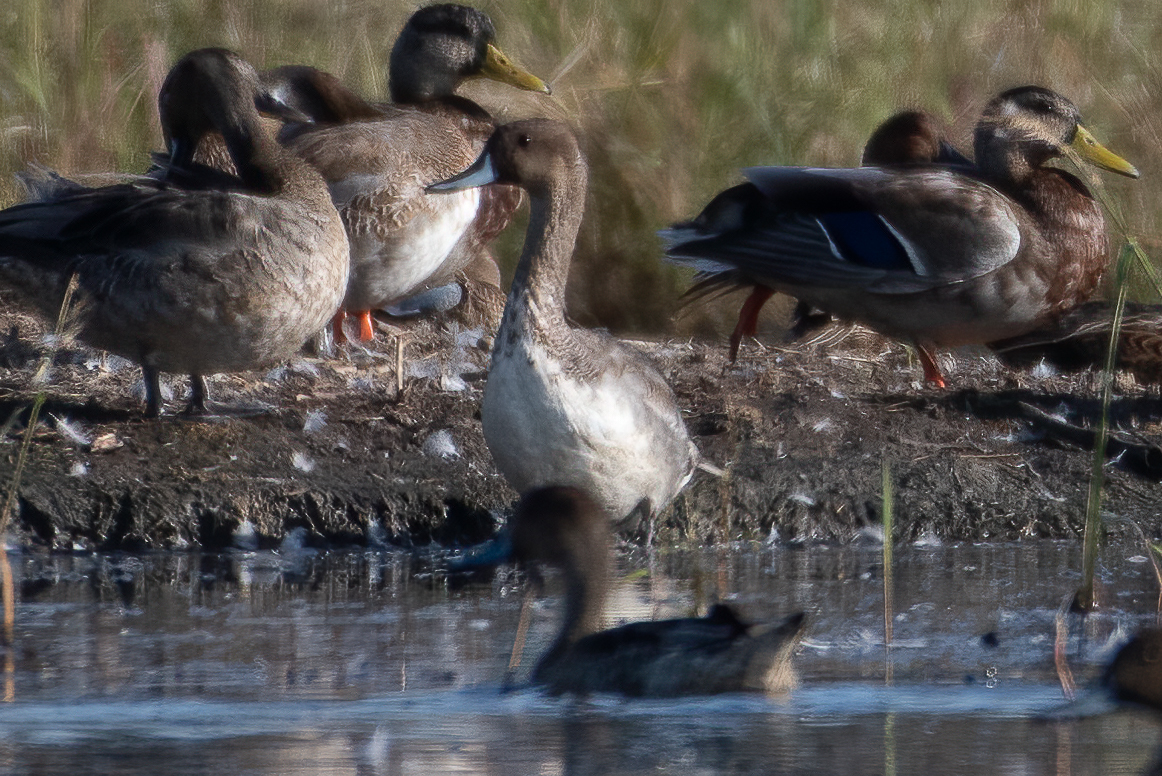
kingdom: Animalia
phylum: Chordata
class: Aves
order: Anseriformes
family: Anatidae
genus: Anas
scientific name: Anas acuta
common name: Northern pintail
